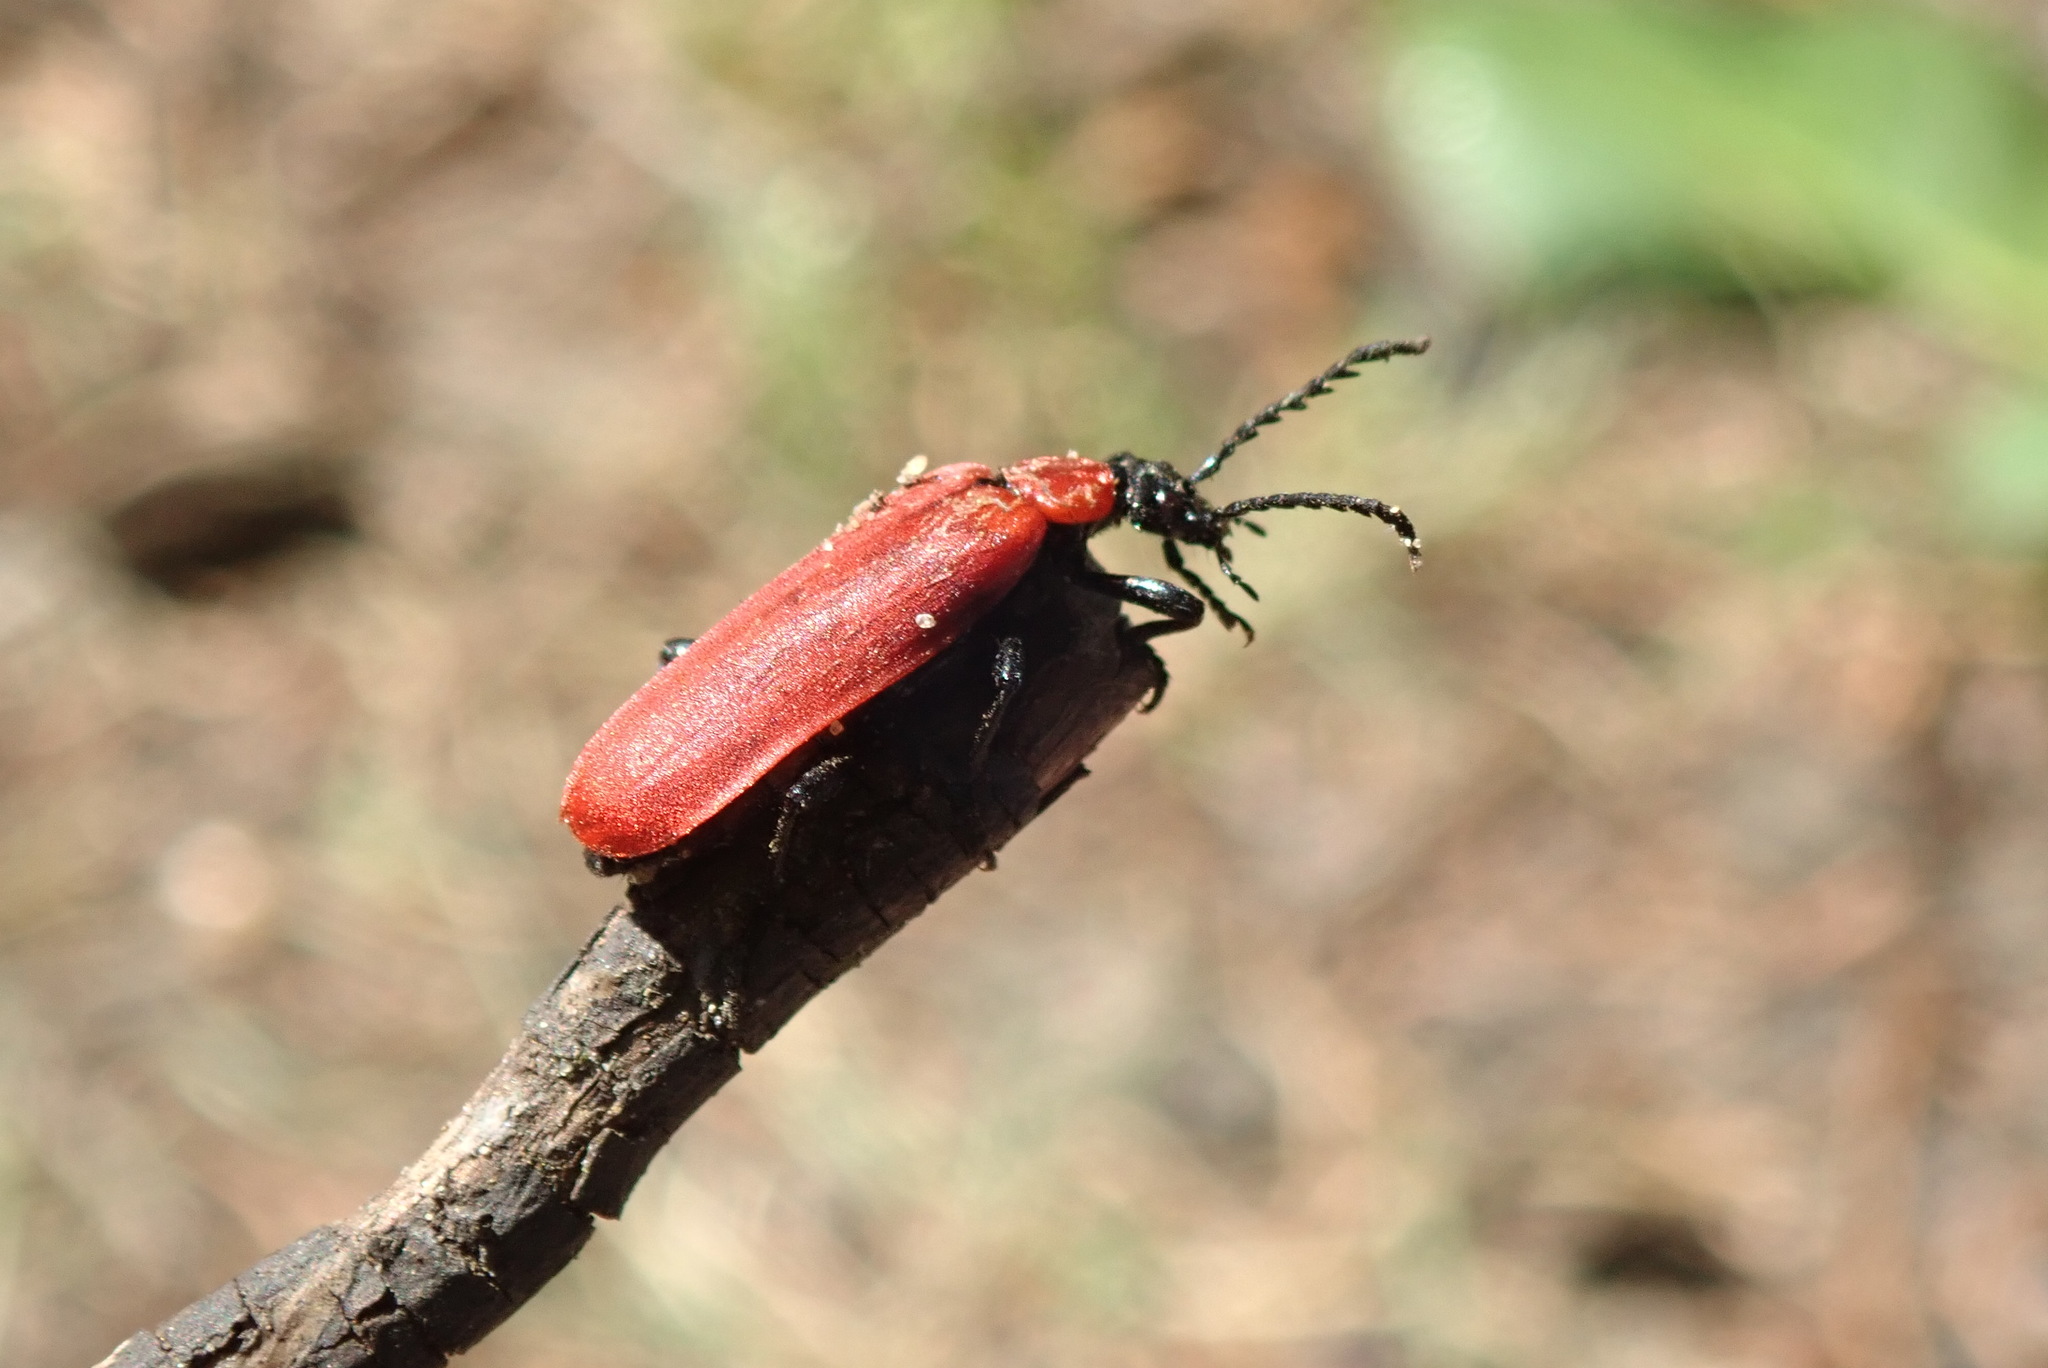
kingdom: Animalia
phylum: Arthropoda
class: Insecta
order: Coleoptera
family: Pyrochroidae
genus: Pyrochroa
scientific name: Pyrochroa coccinea
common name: Black-headed cardinal beetle
